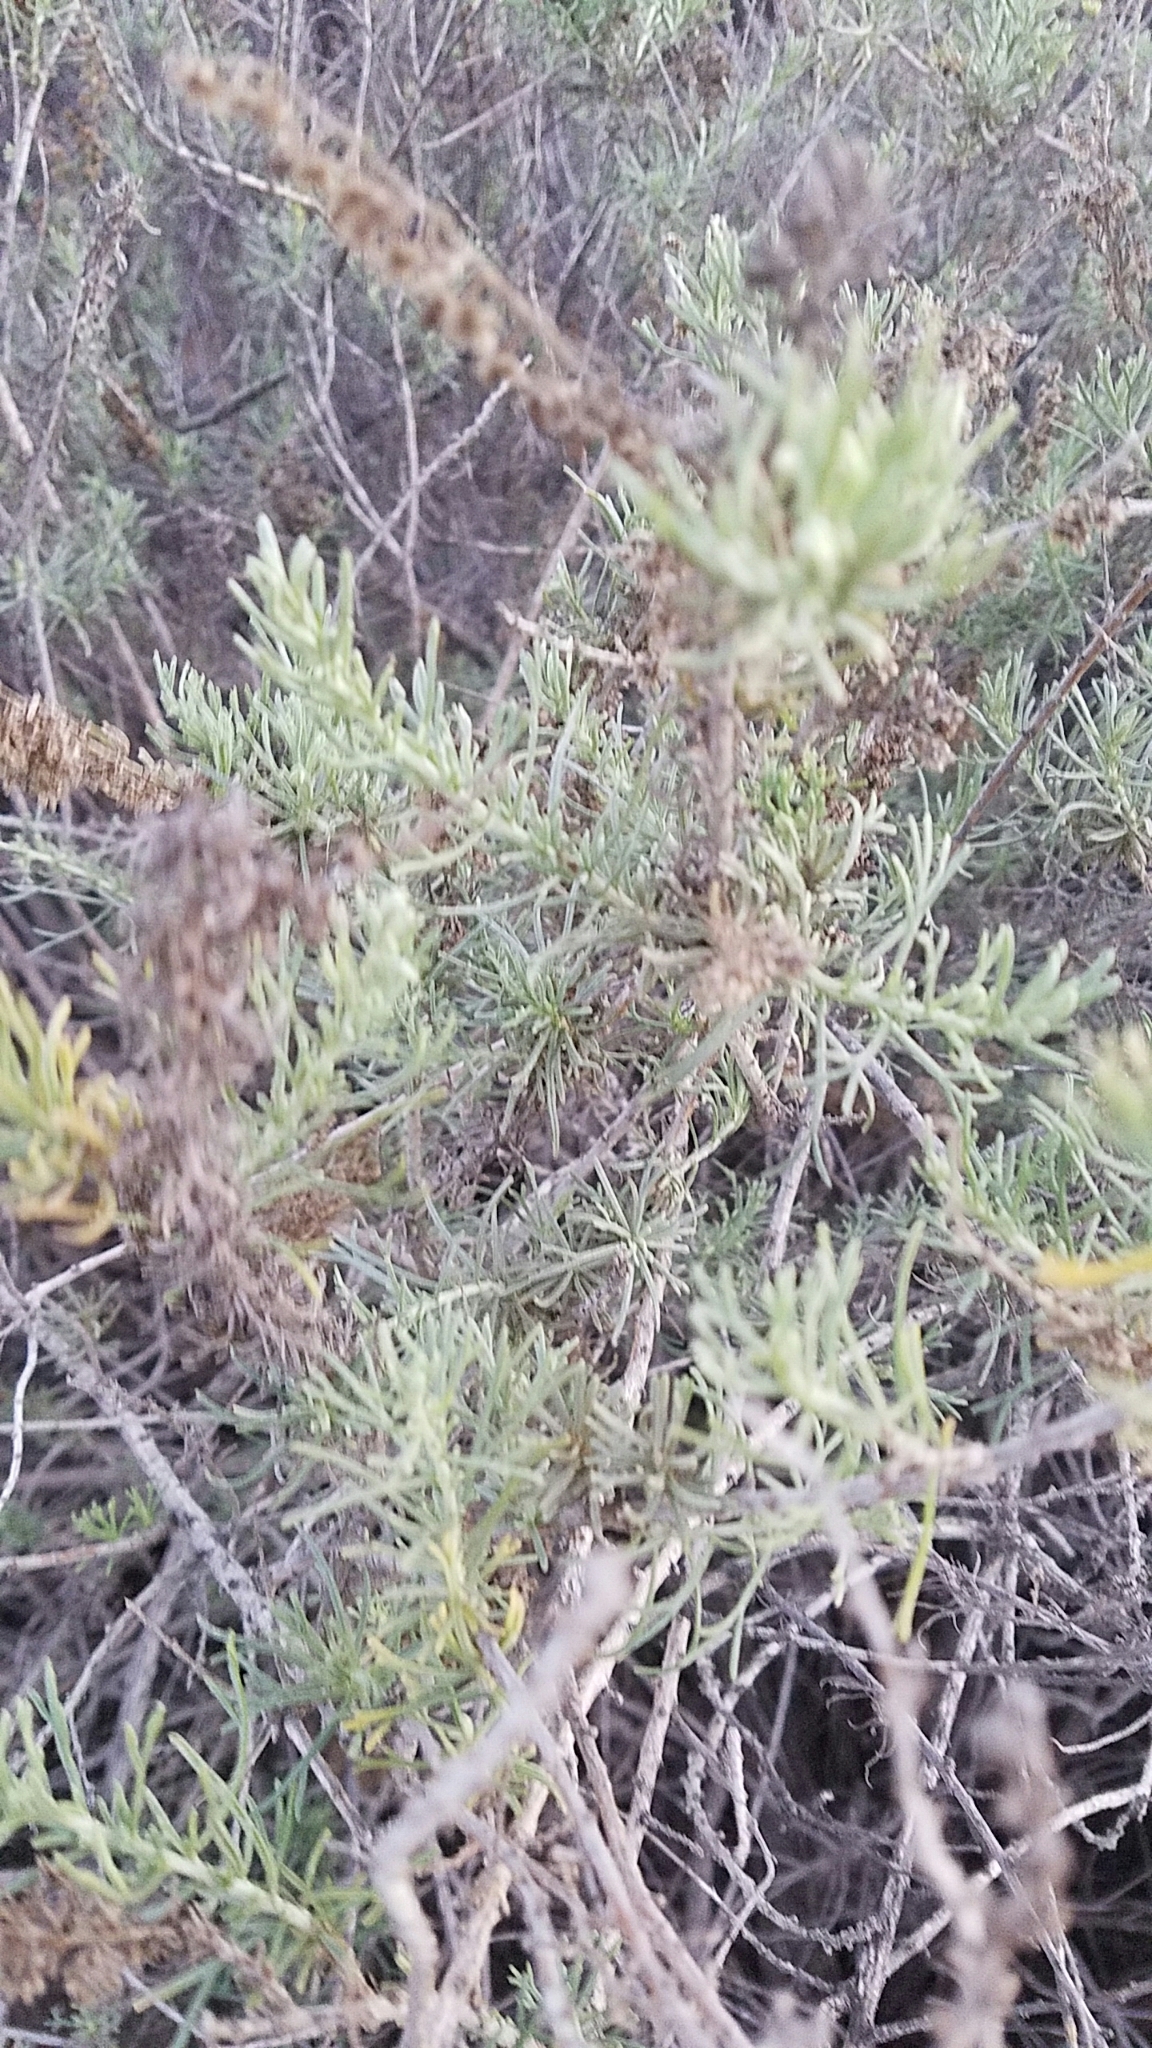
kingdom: Plantae
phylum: Tracheophyta
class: Magnoliopsida
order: Asterales
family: Asteraceae
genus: Artemisia
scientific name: Artemisia californica
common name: California sagebrush
